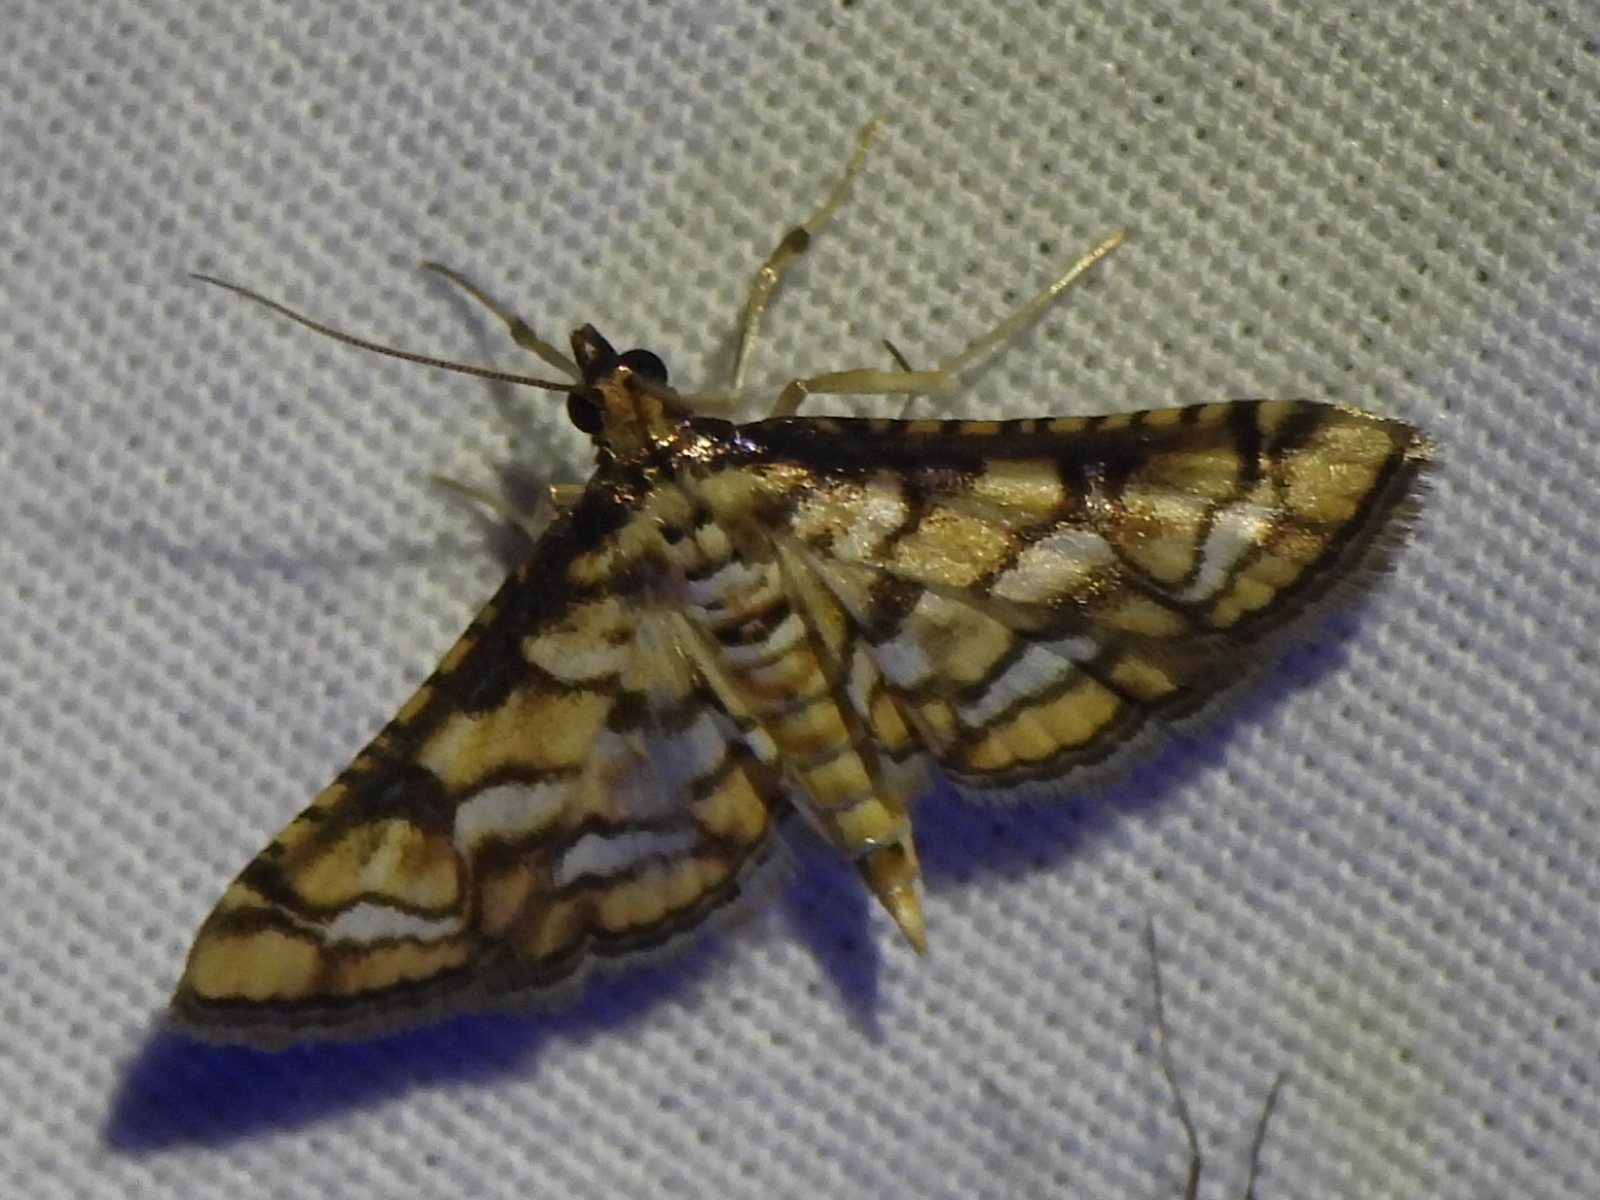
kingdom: Animalia
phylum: Arthropoda
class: Insecta
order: Lepidoptera
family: Crambidae
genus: Hileithia
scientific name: Hileithia magualis
